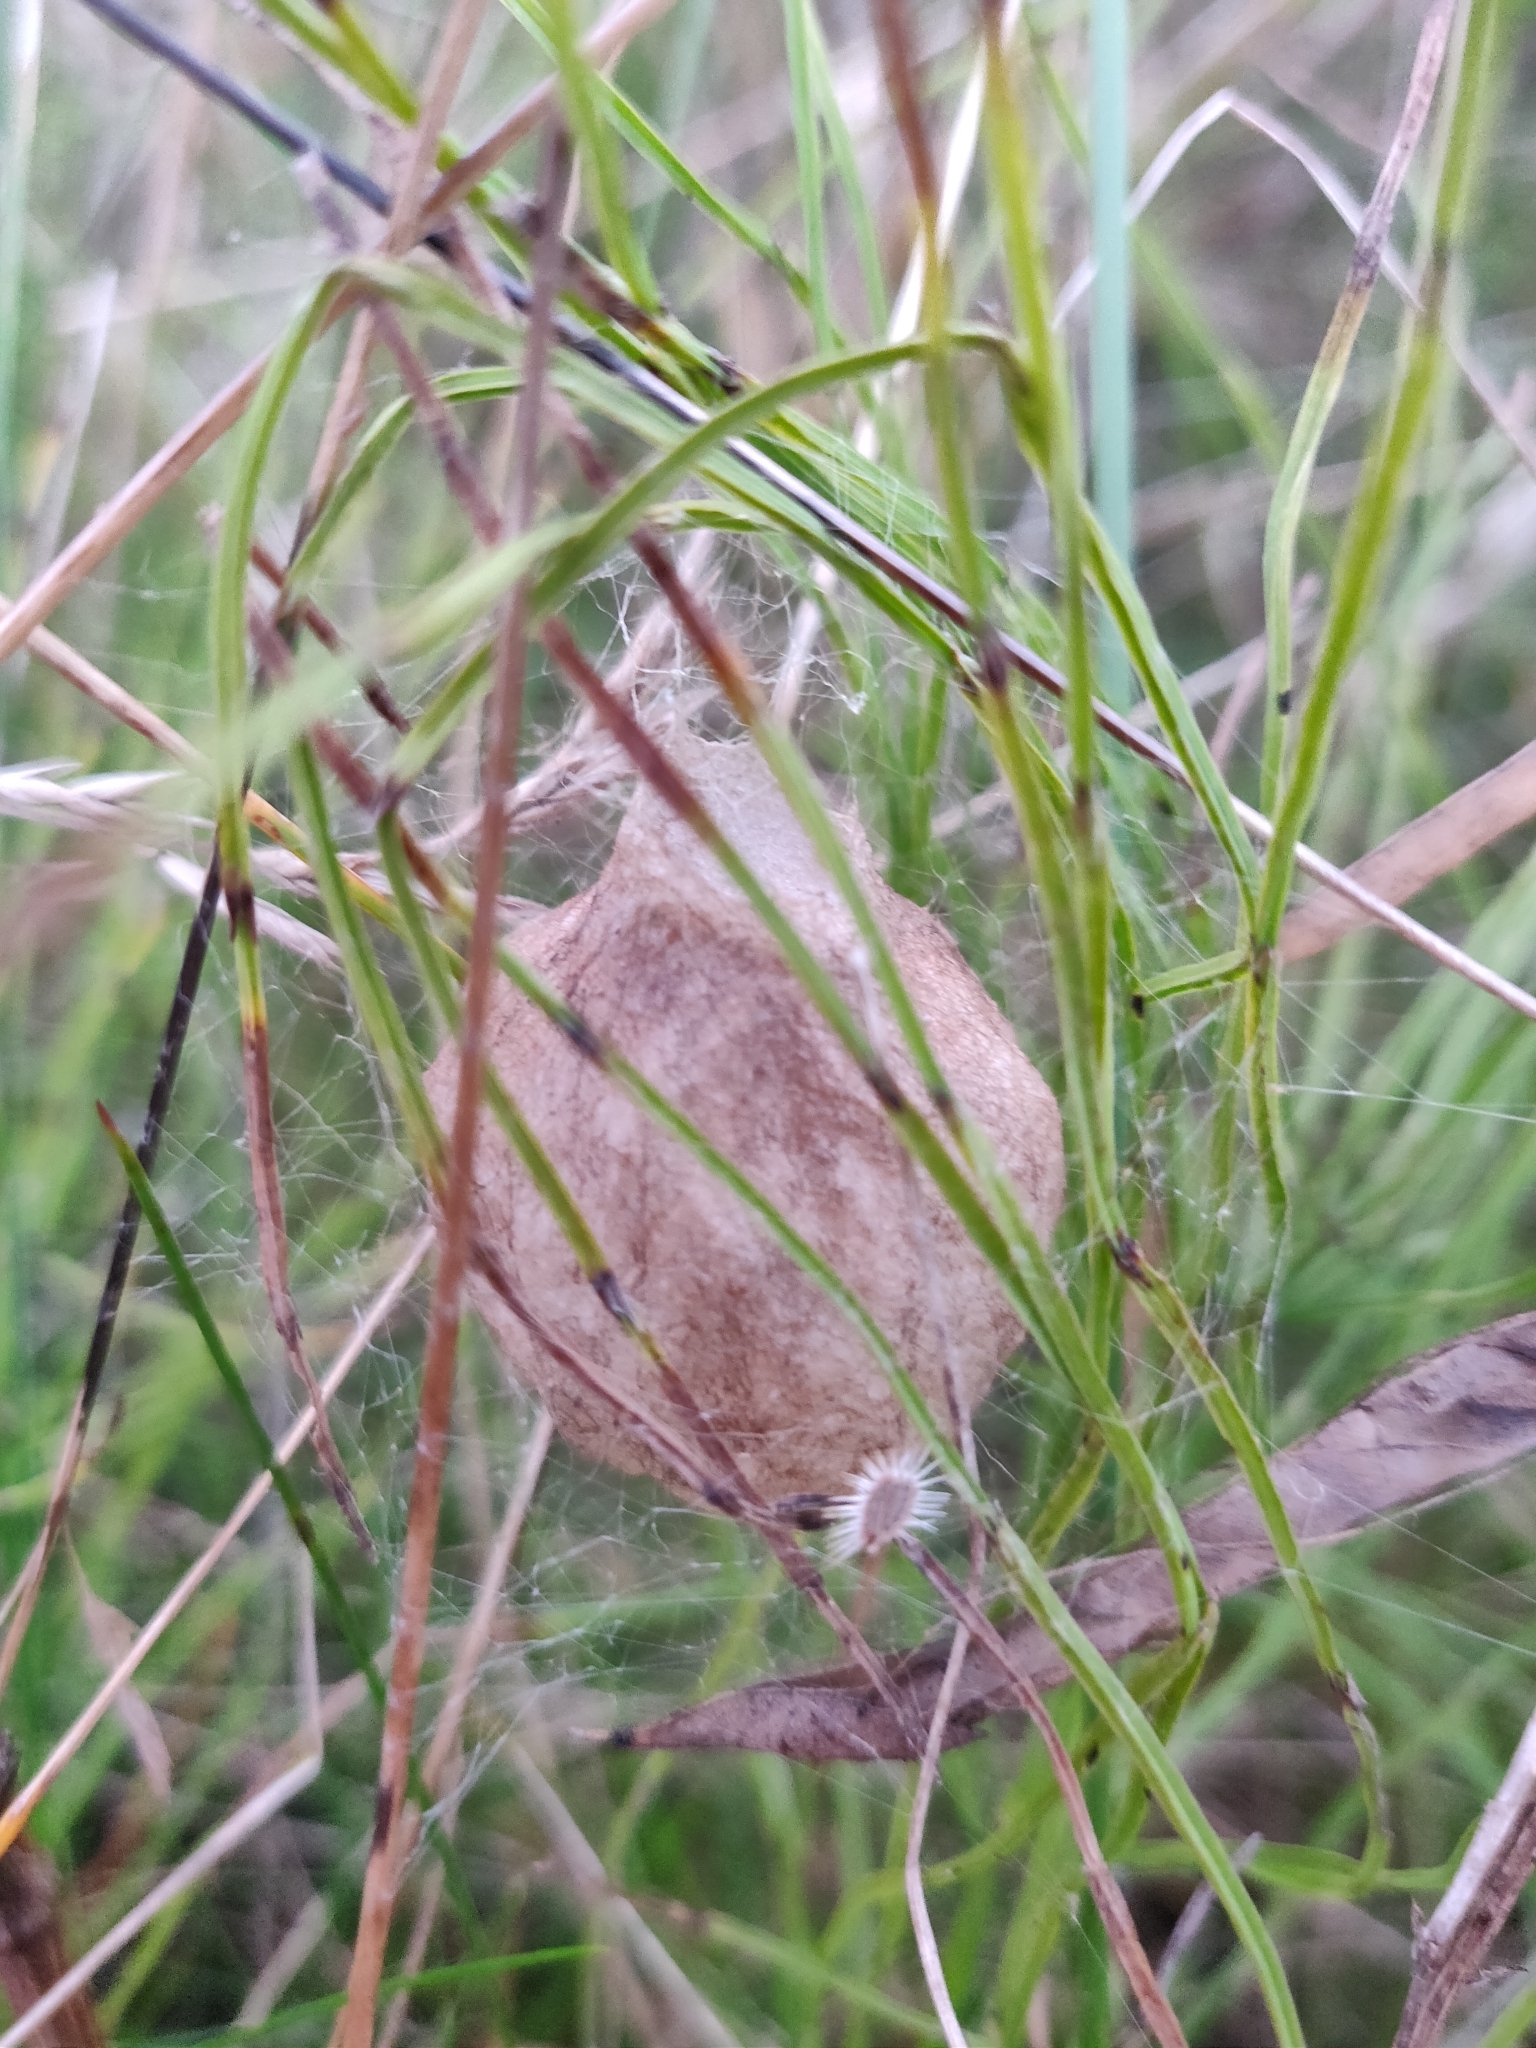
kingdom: Animalia
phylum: Arthropoda
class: Arachnida
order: Araneae
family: Araneidae
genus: Argiope
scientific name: Argiope bruennichi
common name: Wasp spider
